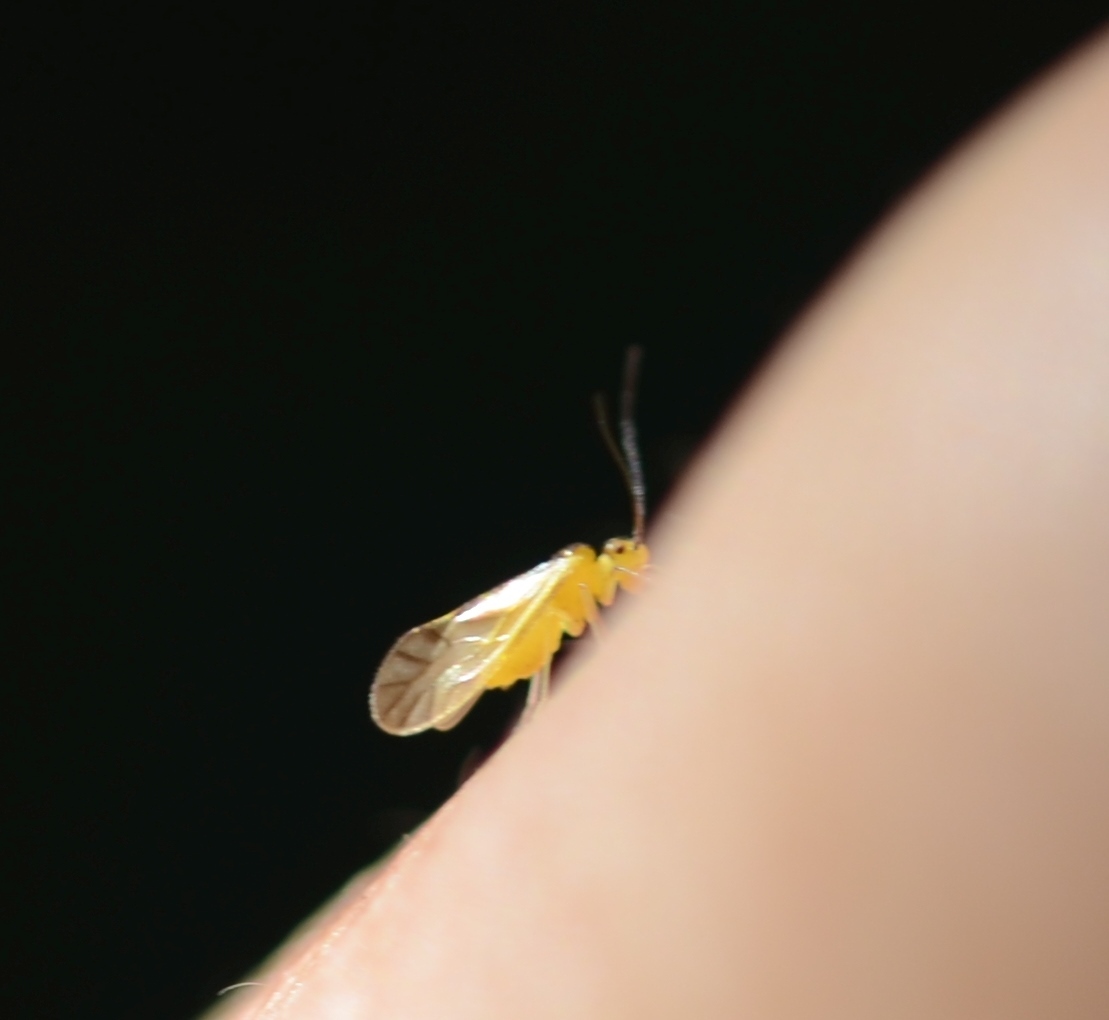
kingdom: Animalia
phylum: Arthropoda
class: Insecta
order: Psocodea
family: Caeciliusidae
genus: Valenzuela
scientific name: Valenzuela flavidus
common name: Yellow barklouse
